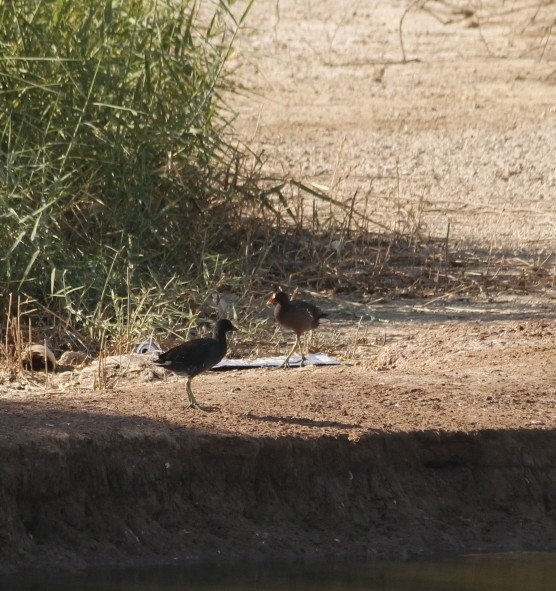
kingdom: Animalia
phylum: Chordata
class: Aves
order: Gruiformes
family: Rallidae
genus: Gallinula
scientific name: Gallinula chloropus
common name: Common moorhen
